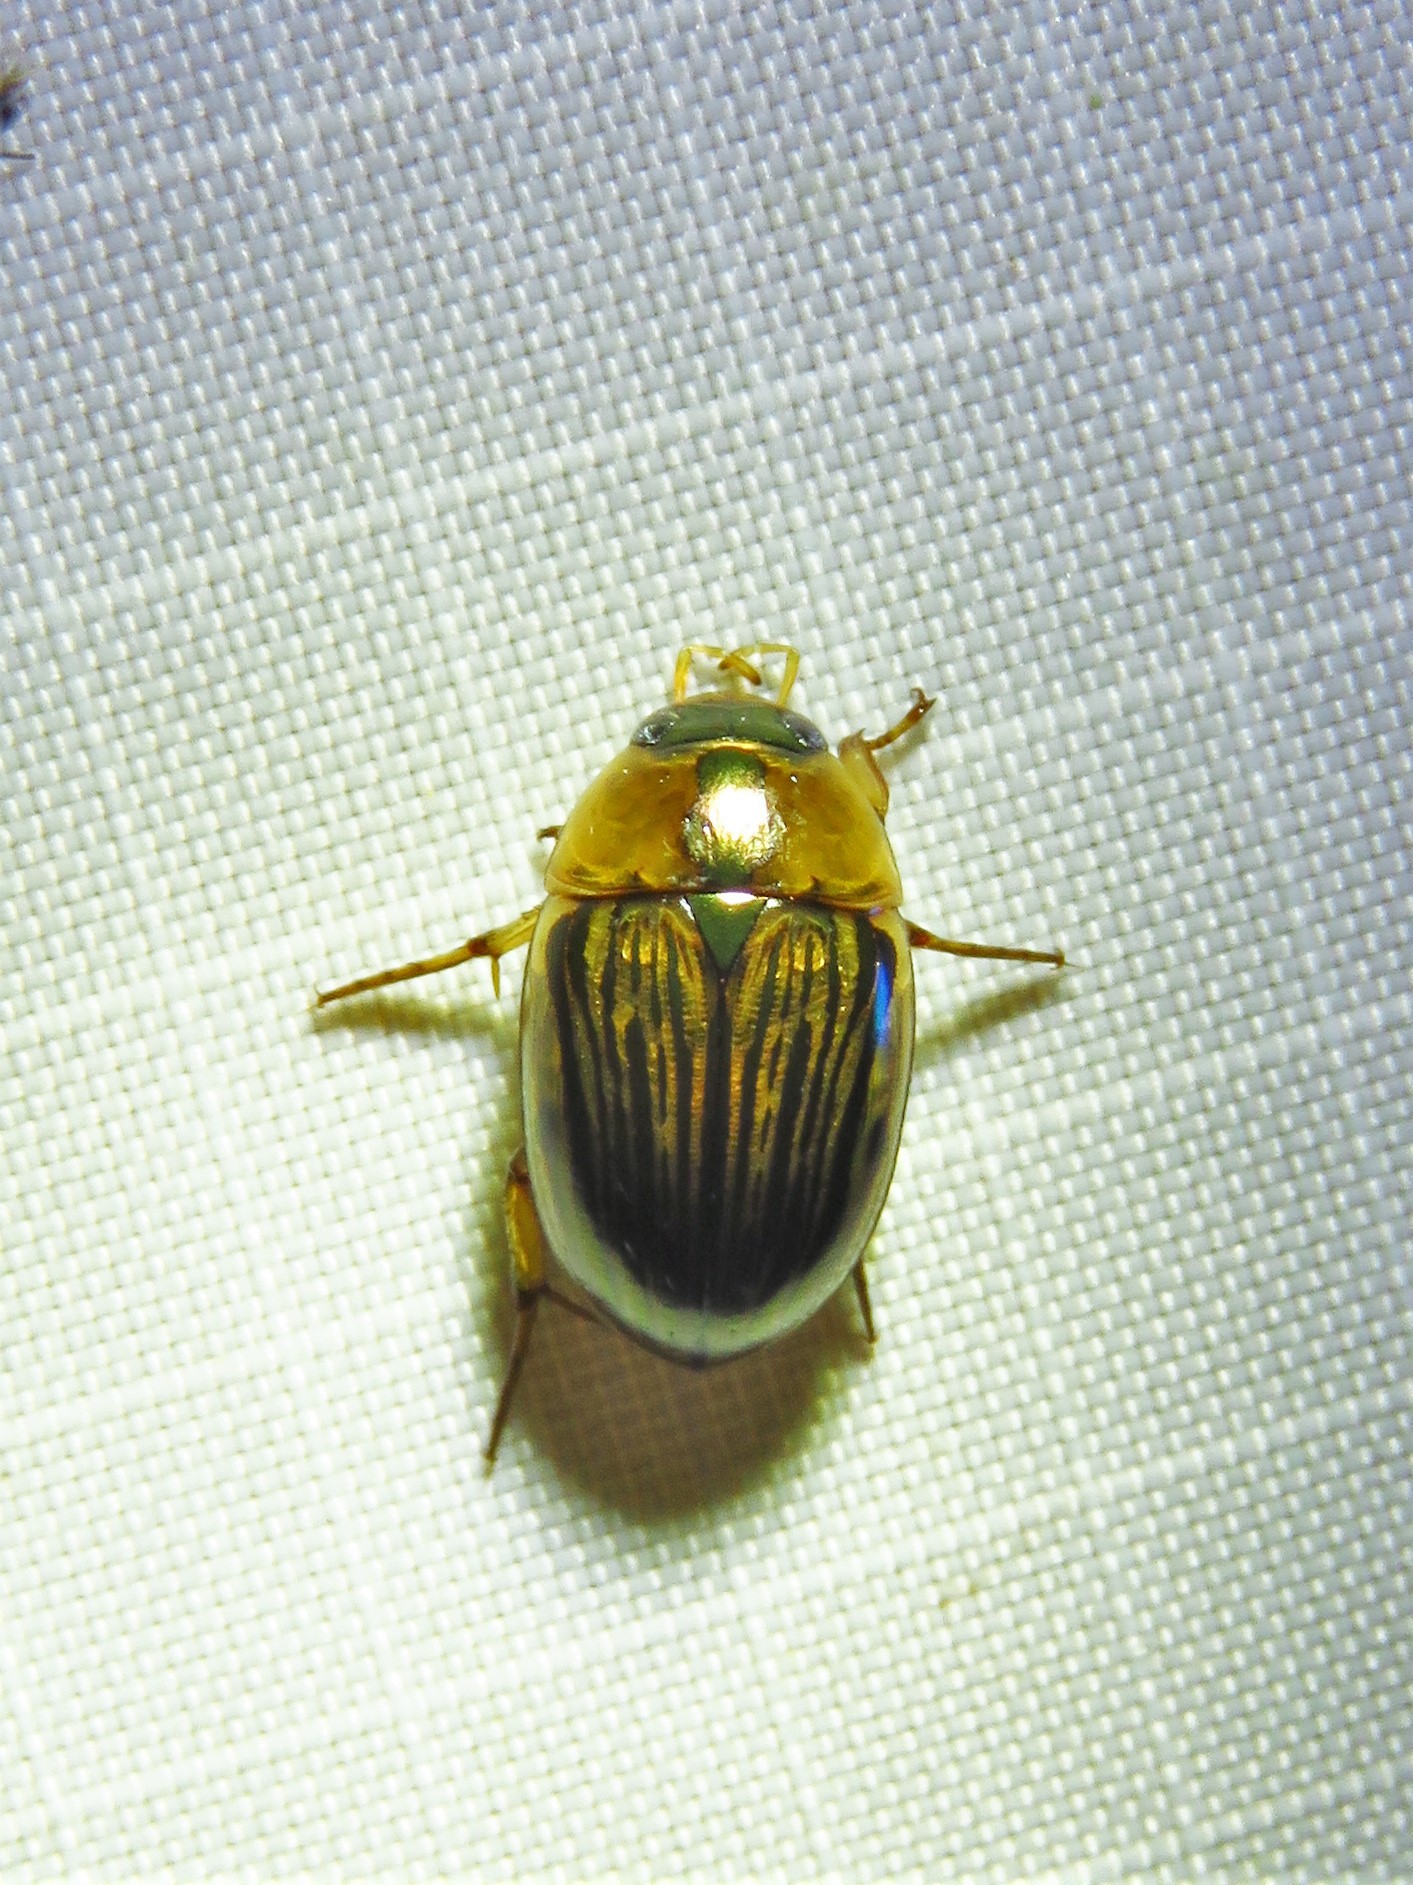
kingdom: Animalia
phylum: Arthropoda
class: Insecta
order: Coleoptera
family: Hydrophilidae
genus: Tropisternus
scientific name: Tropisternus collaris
